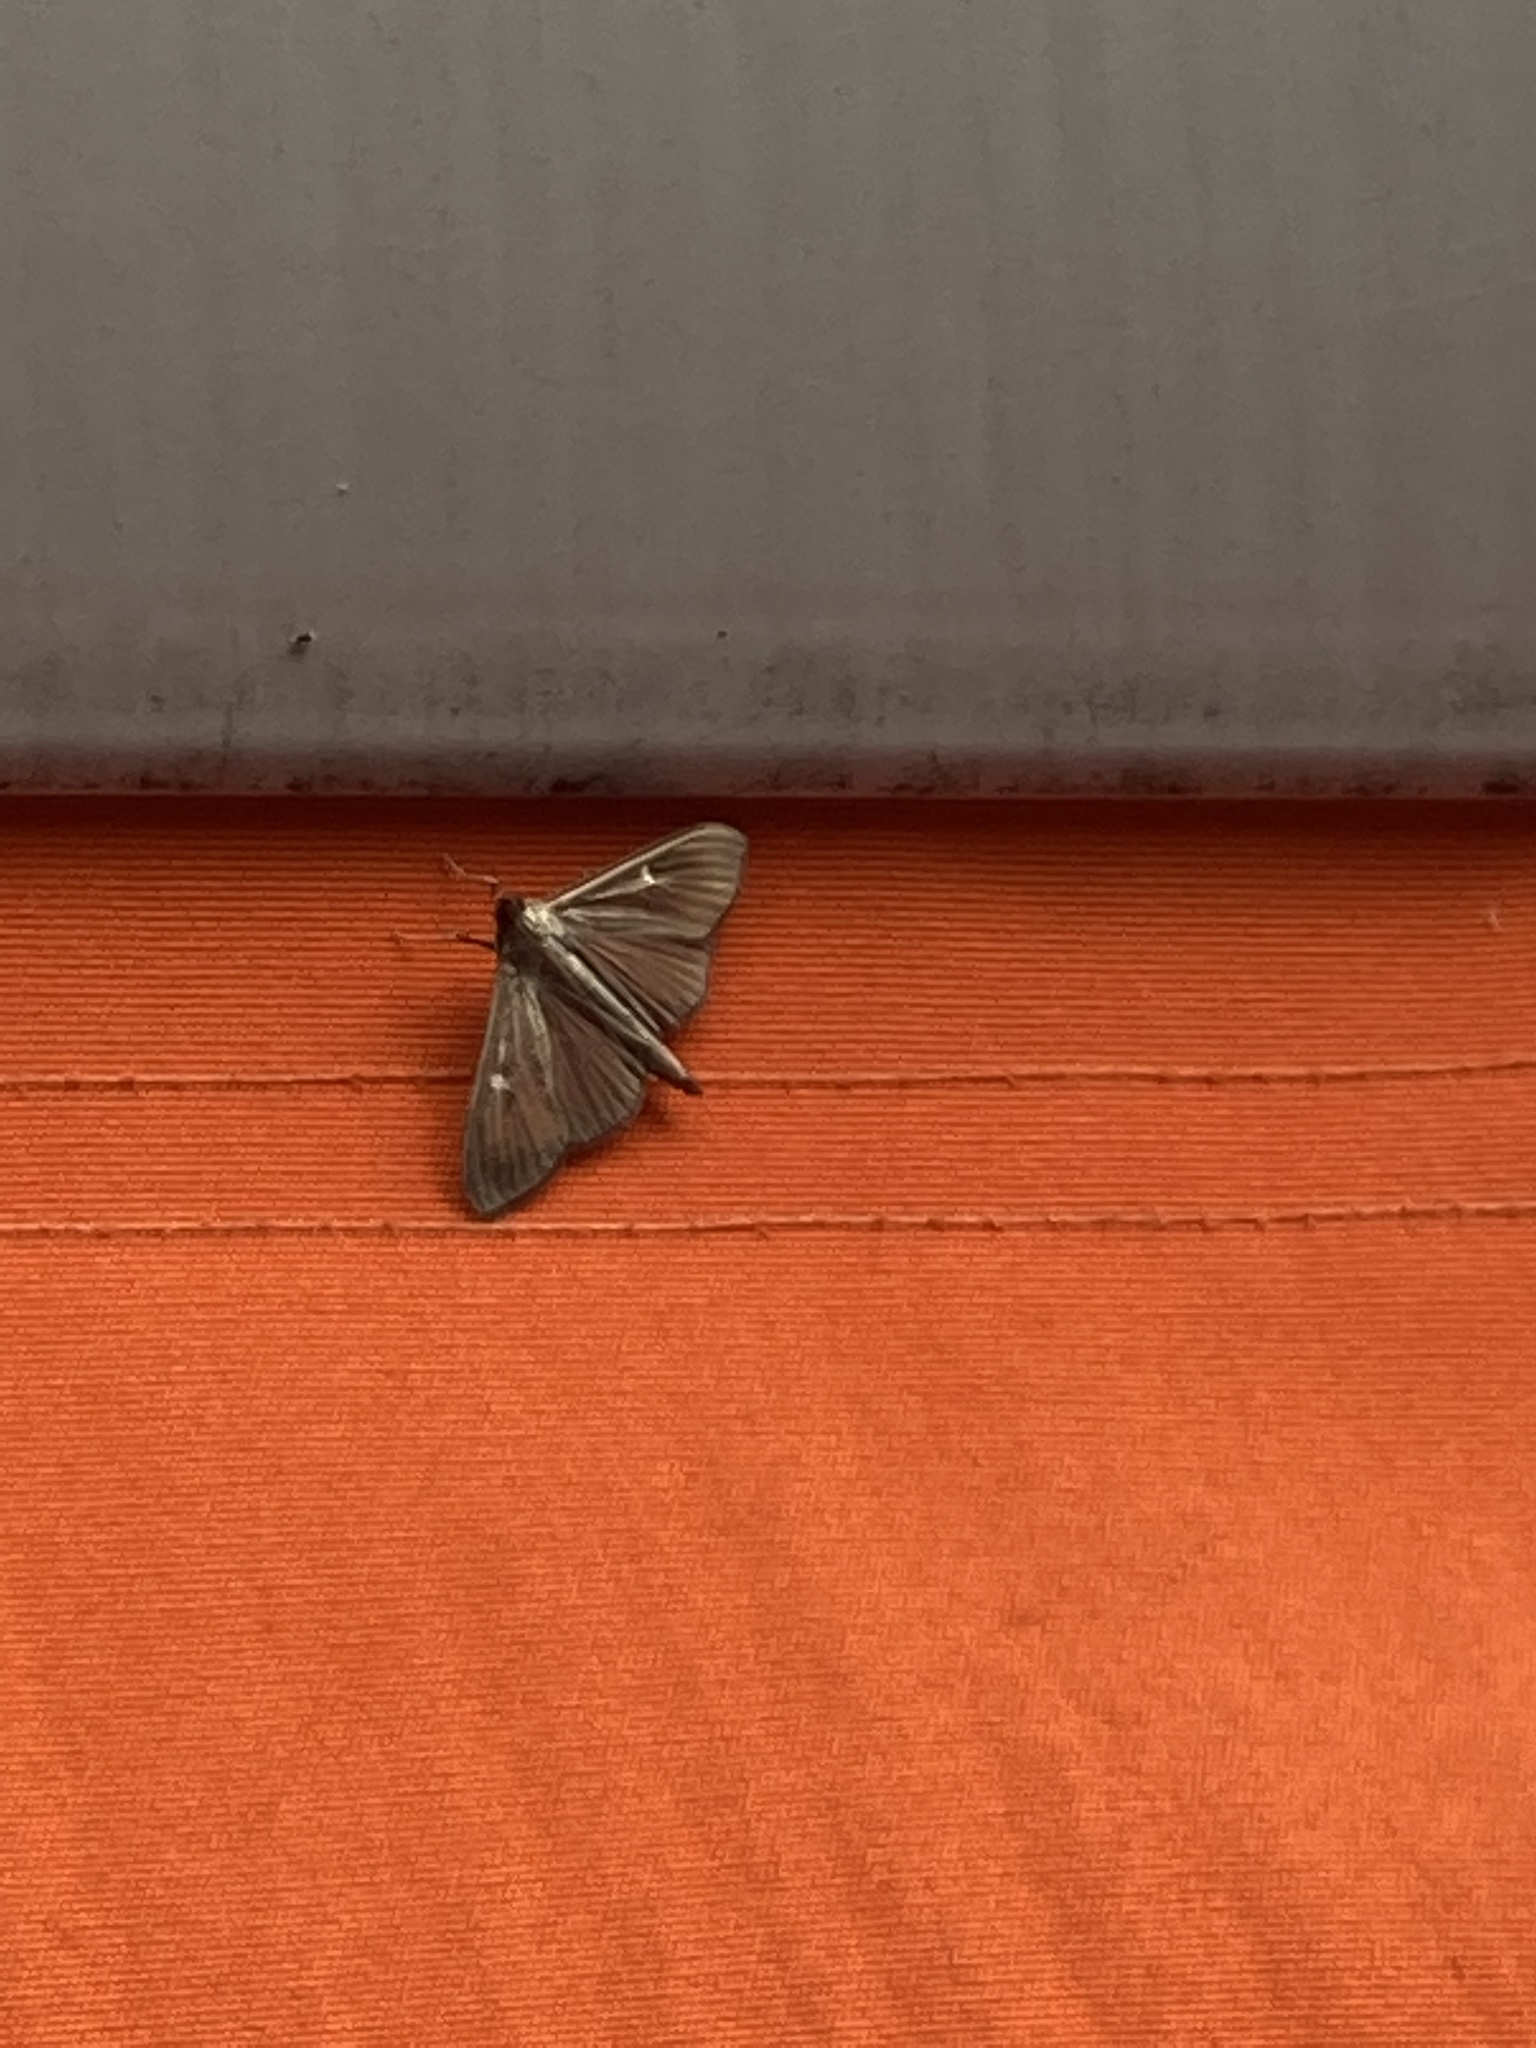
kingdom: Animalia
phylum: Arthropoda
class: Insecta
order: Lepidoptera
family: Crambidae
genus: Cydalima
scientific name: Cydalima perspectalis
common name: Box tree moth
